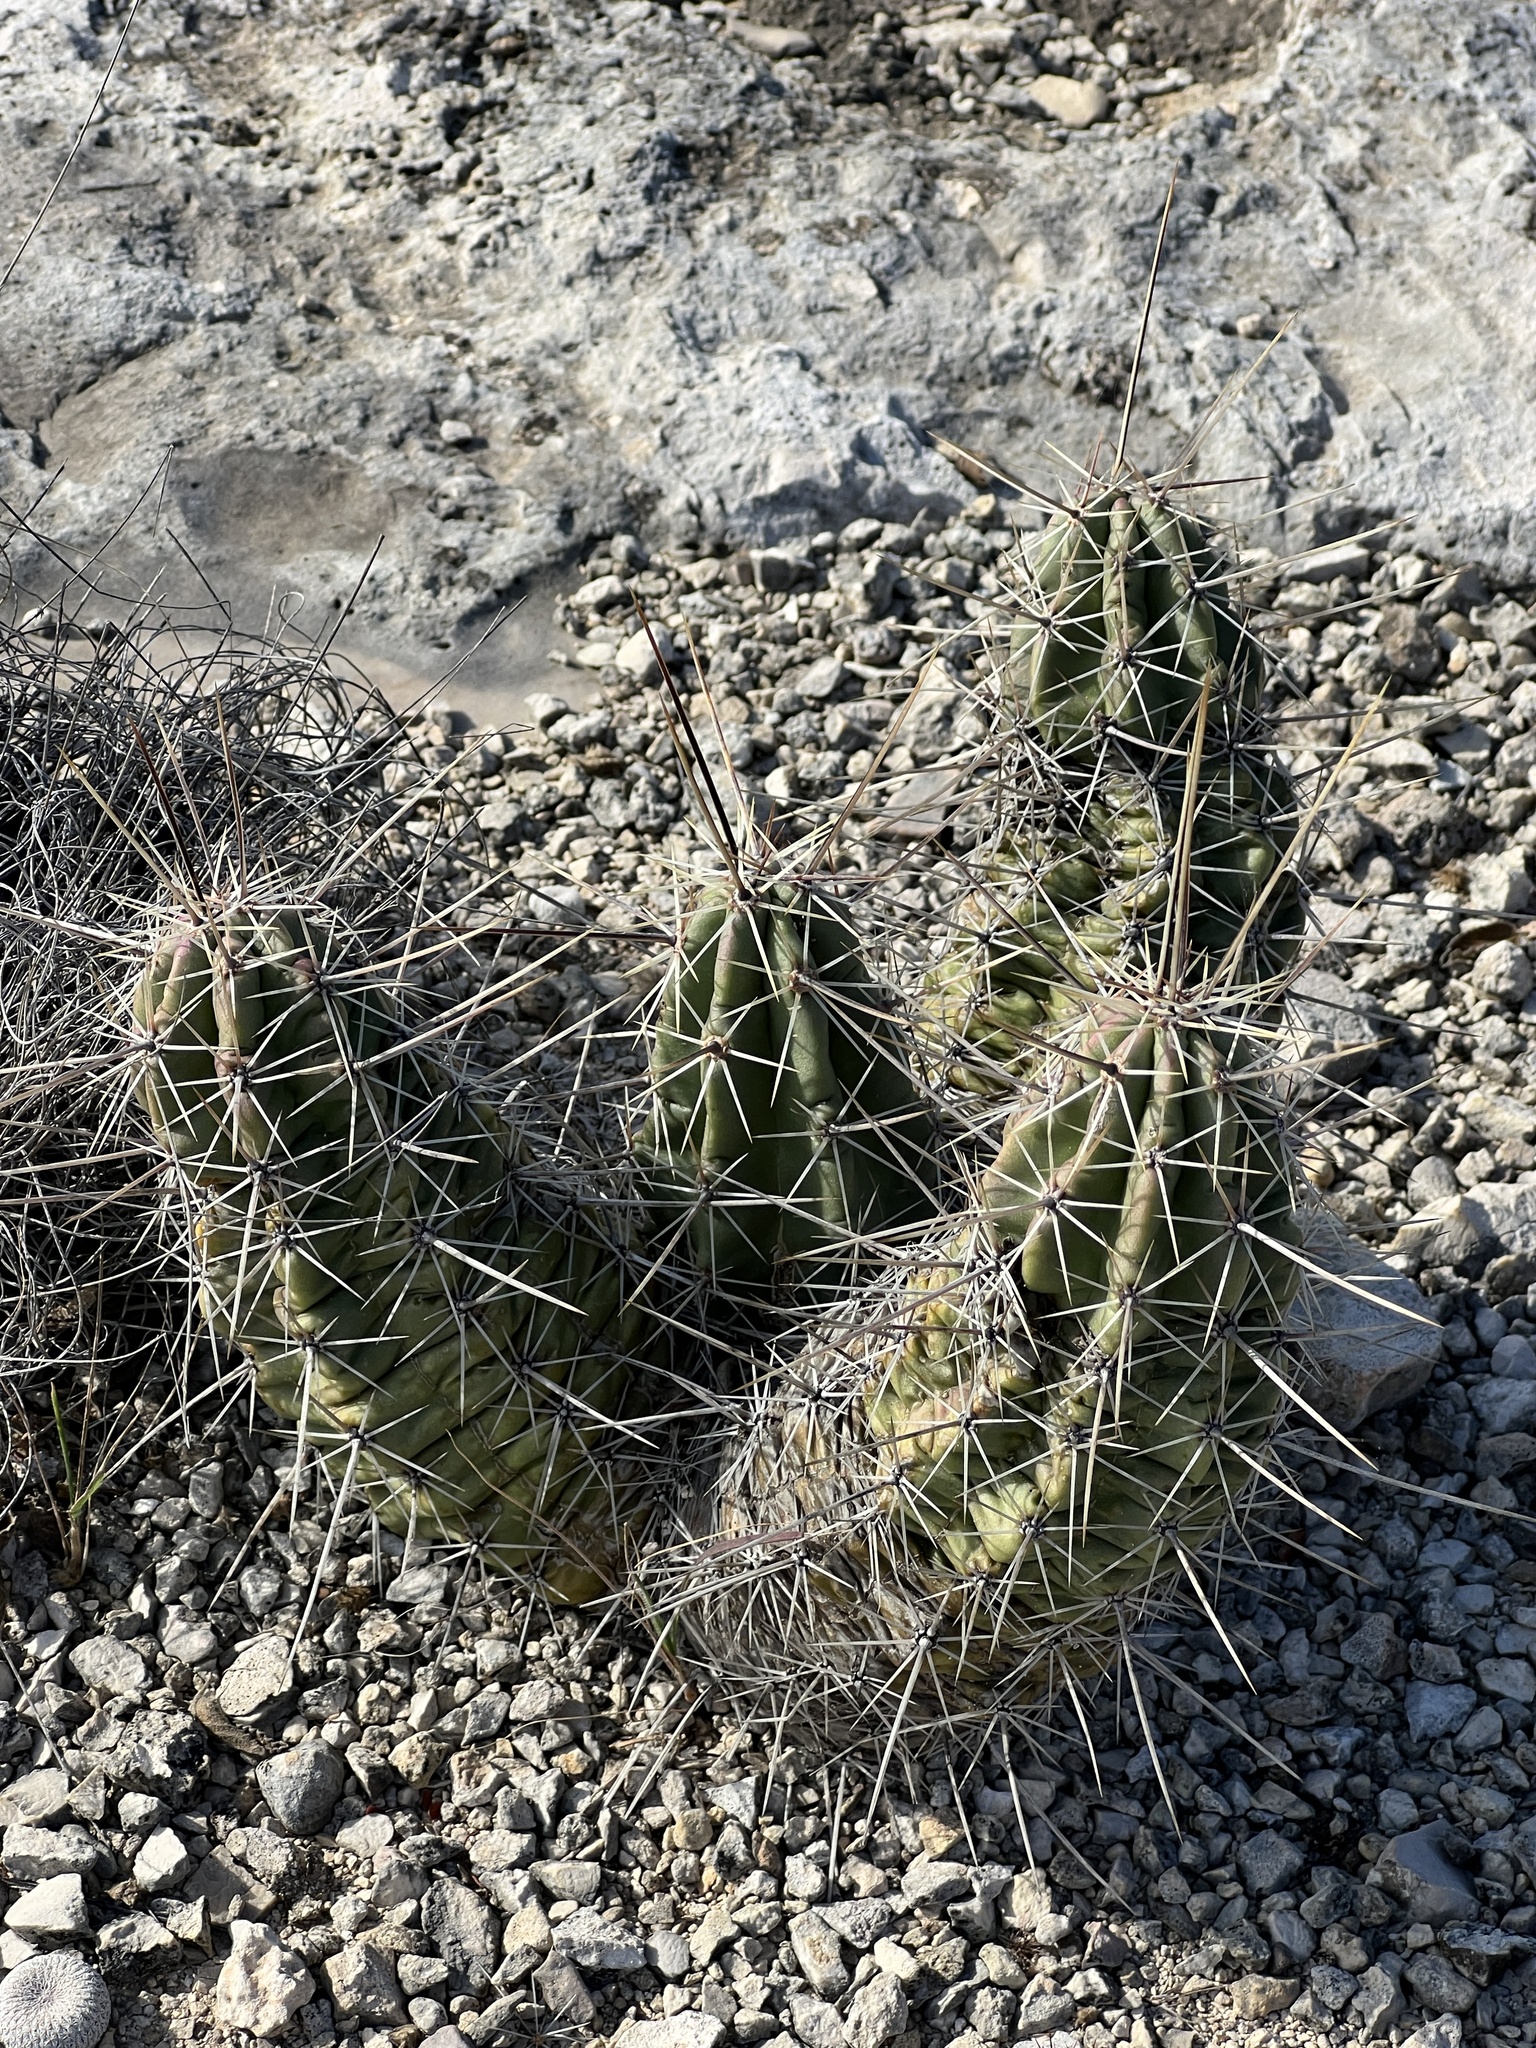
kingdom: Plantae
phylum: Tracheophyta
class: Magnoliopsida
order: Caryophyllales
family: Cactaceae
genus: Echinocereus
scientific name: Echinocereus enneacanthus
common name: Pitaya
